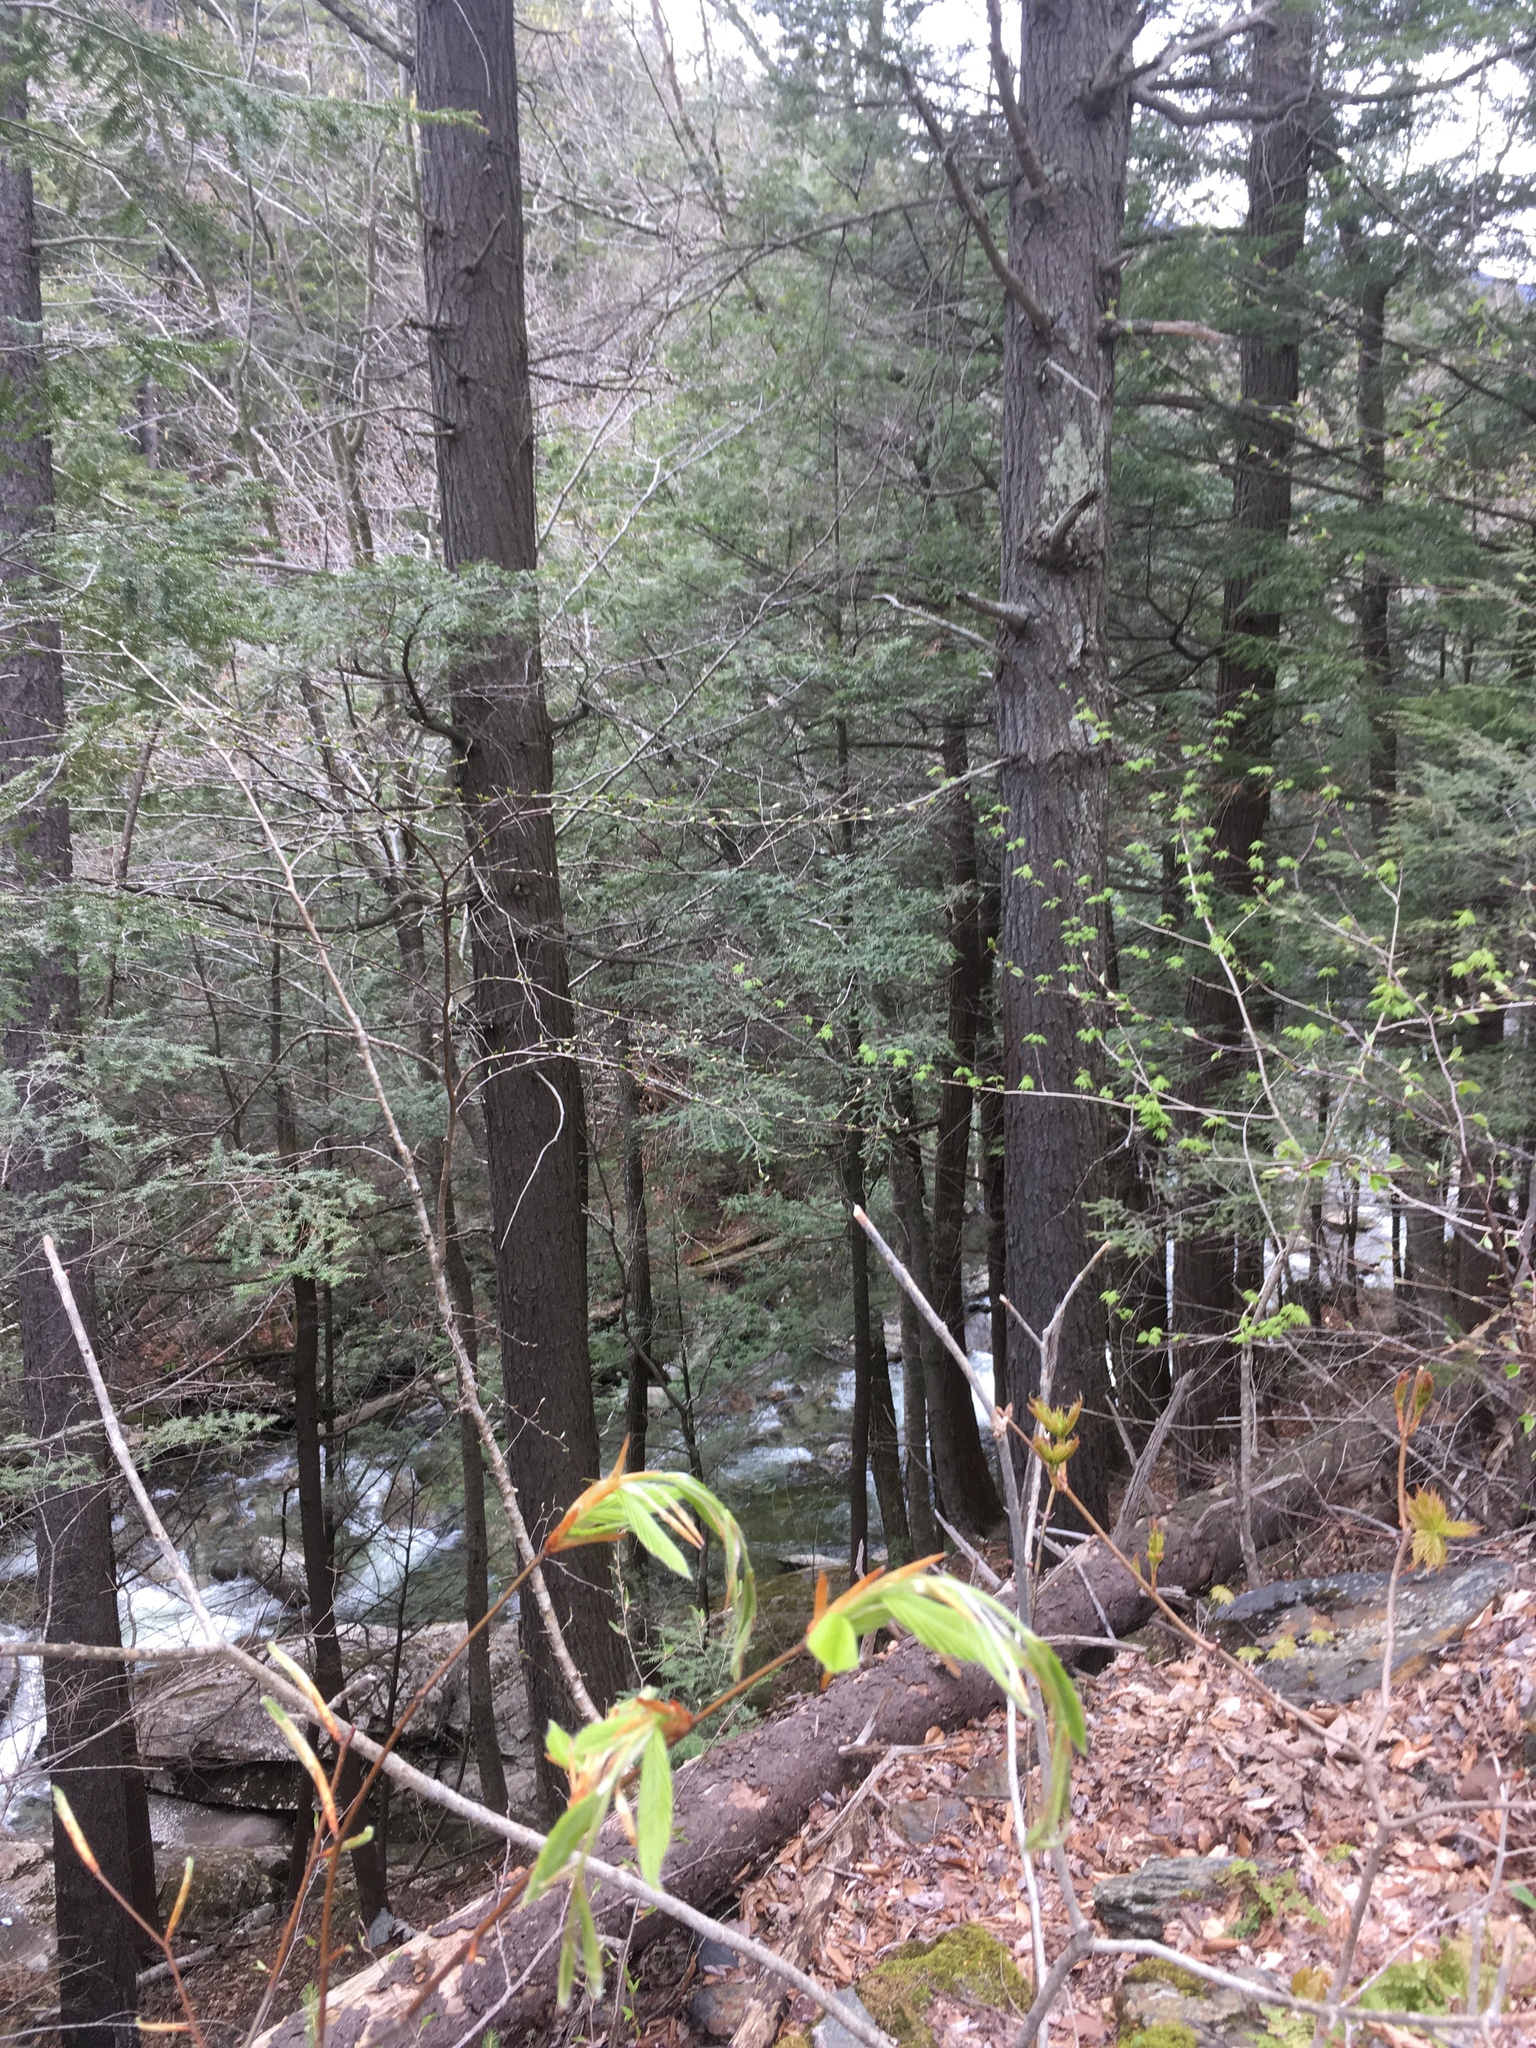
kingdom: Plantae
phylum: Tracheophyta
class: Pinopsida
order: Pinales
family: Pinaceae
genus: Tsuga
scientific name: Tsuga canadensis
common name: Eastern hemlock
